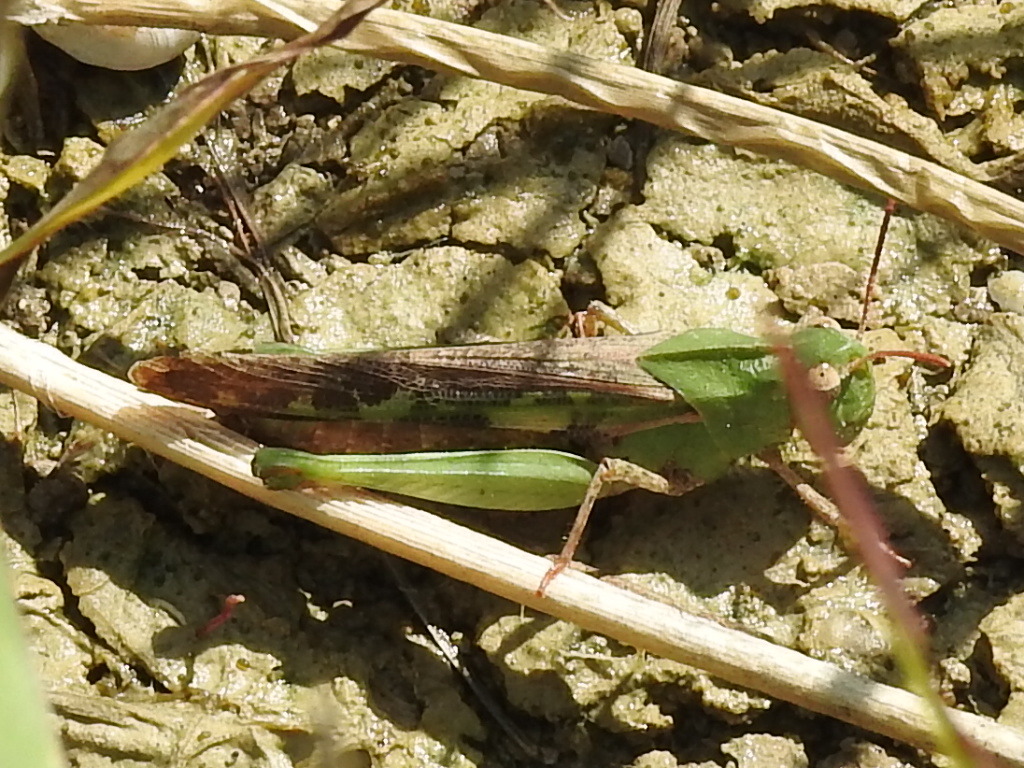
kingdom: Animalia
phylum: Arthropoda
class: Insecta
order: Orthoptera
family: Acrididae
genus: Chortophaga
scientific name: Chortophaga viridifasciata
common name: Green-striped grasshopper
